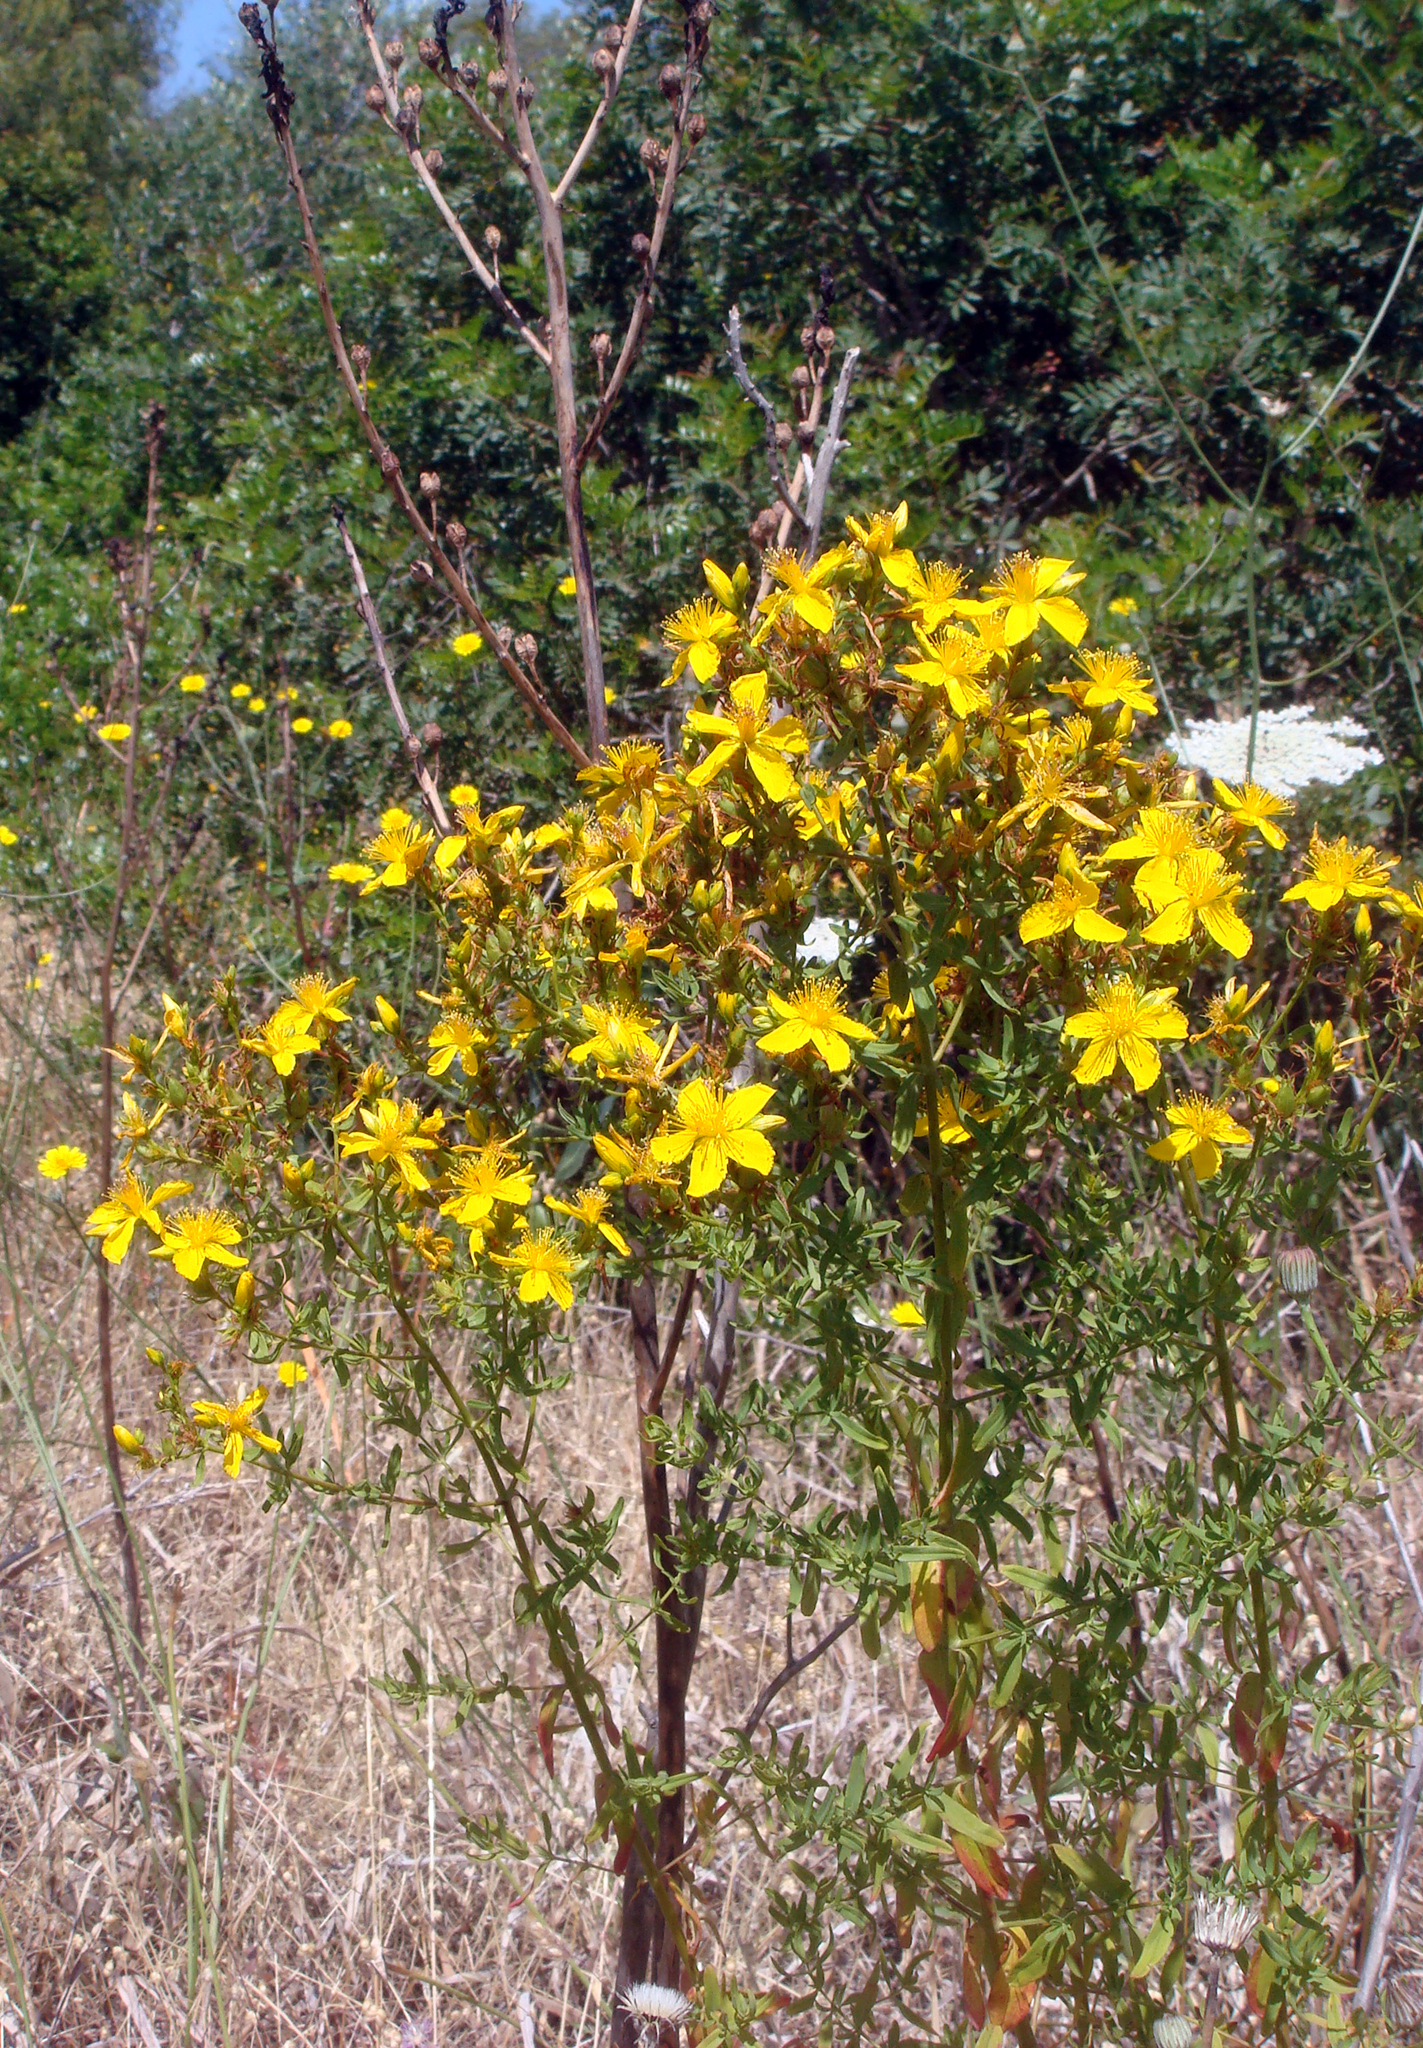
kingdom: Plantae
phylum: Tracheophyta
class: Magnoliopsida
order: Malpighiales
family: Hypericaceae
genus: Hypericum
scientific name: Hypericum perforatum
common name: Common st. johnswort
